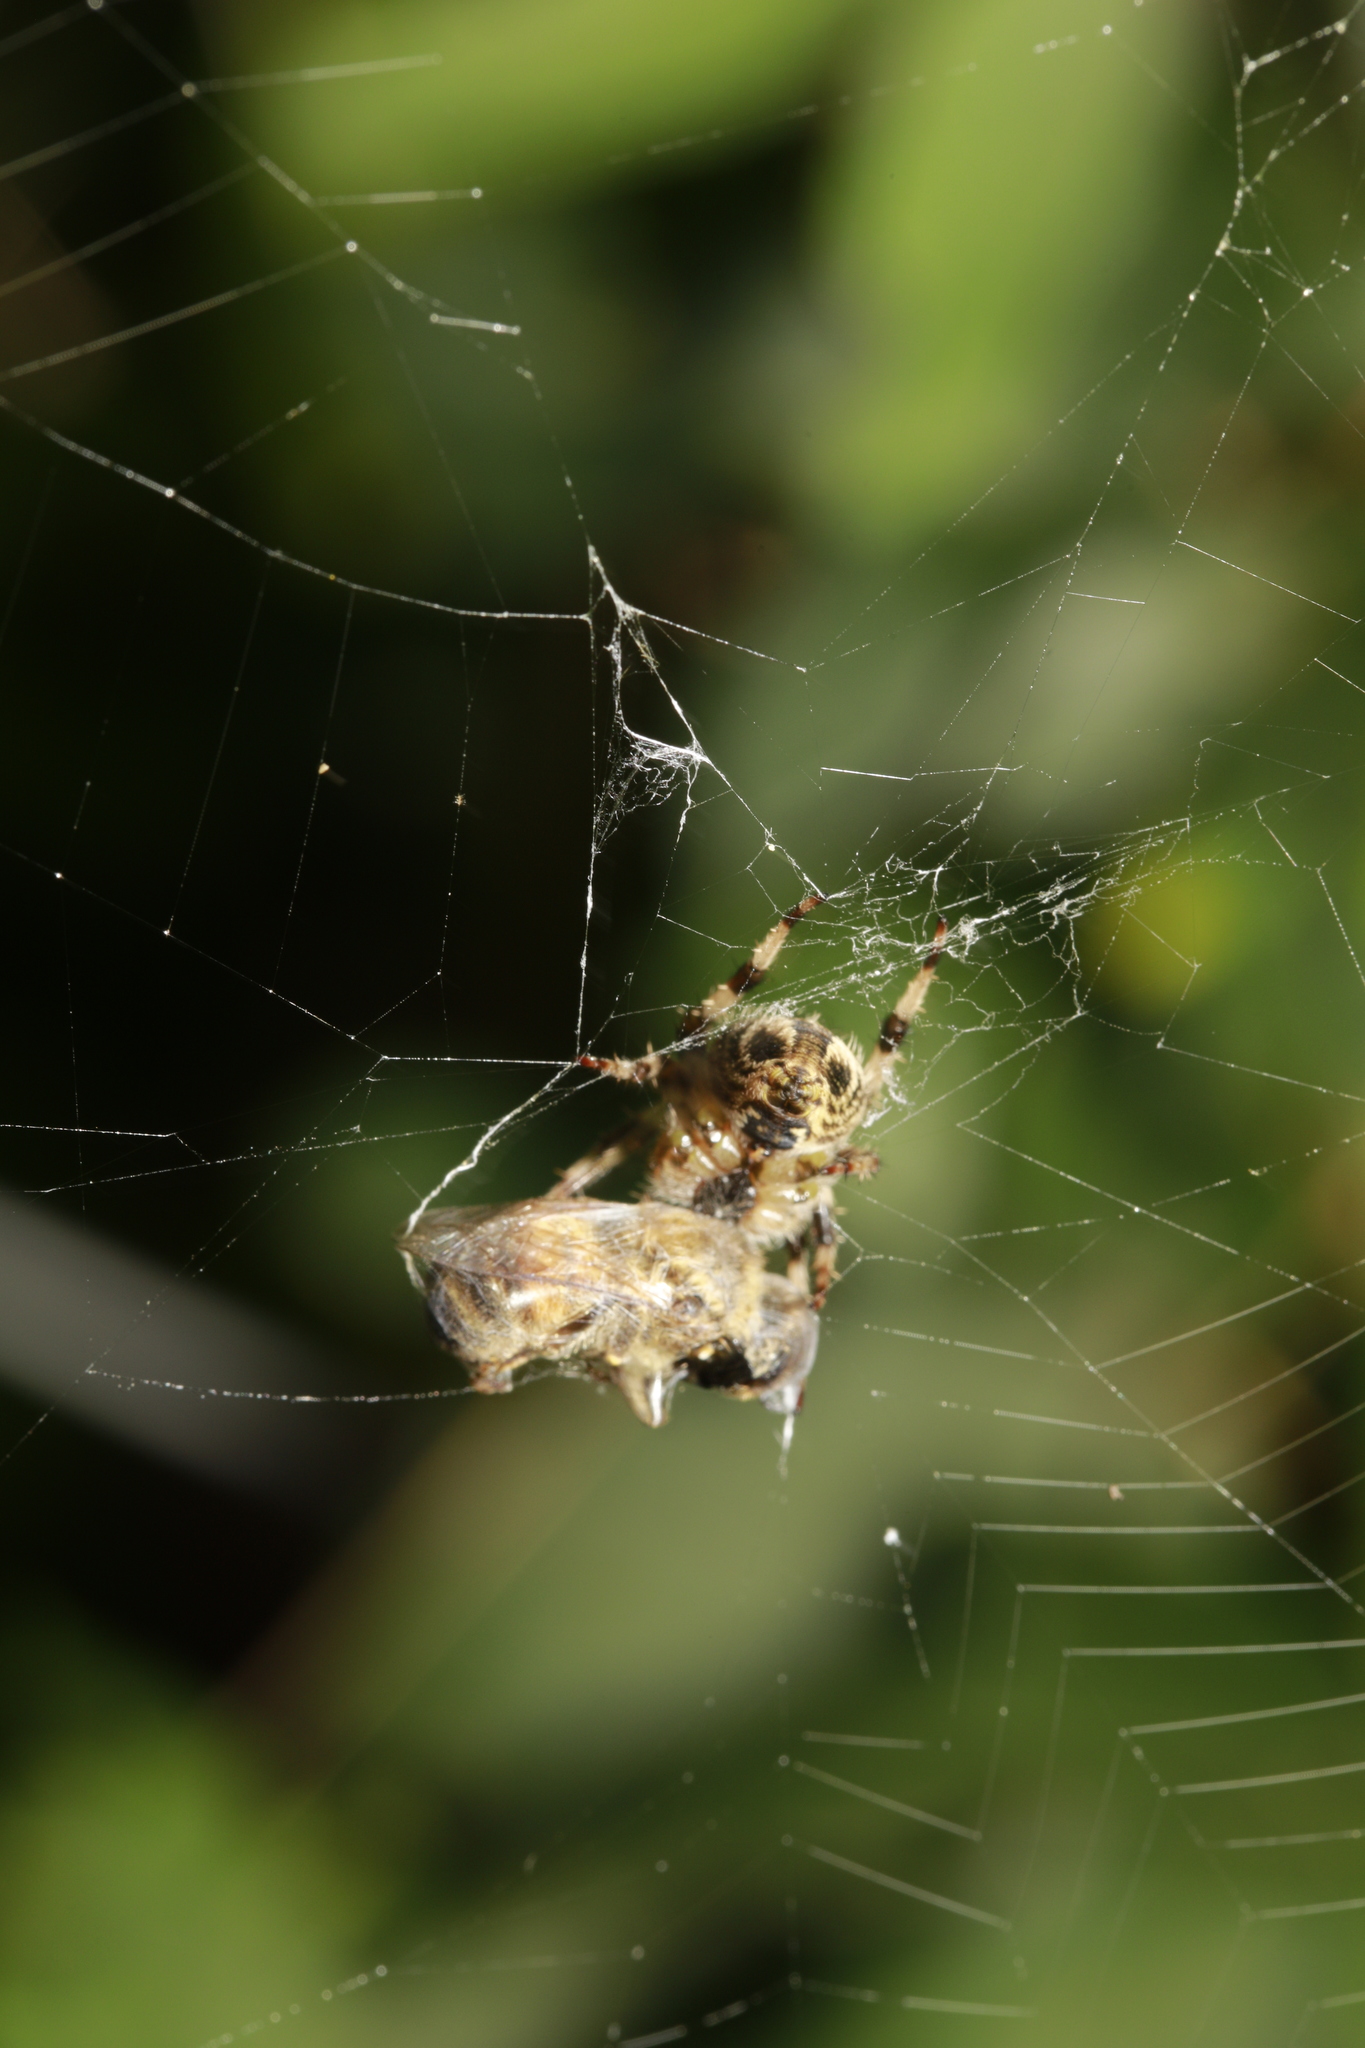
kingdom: Animalia
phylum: Arthropoda
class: Arachnida
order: Araneae
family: Araneidae
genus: Araneus
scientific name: Araneus diadematus
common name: Cross orbweaver
